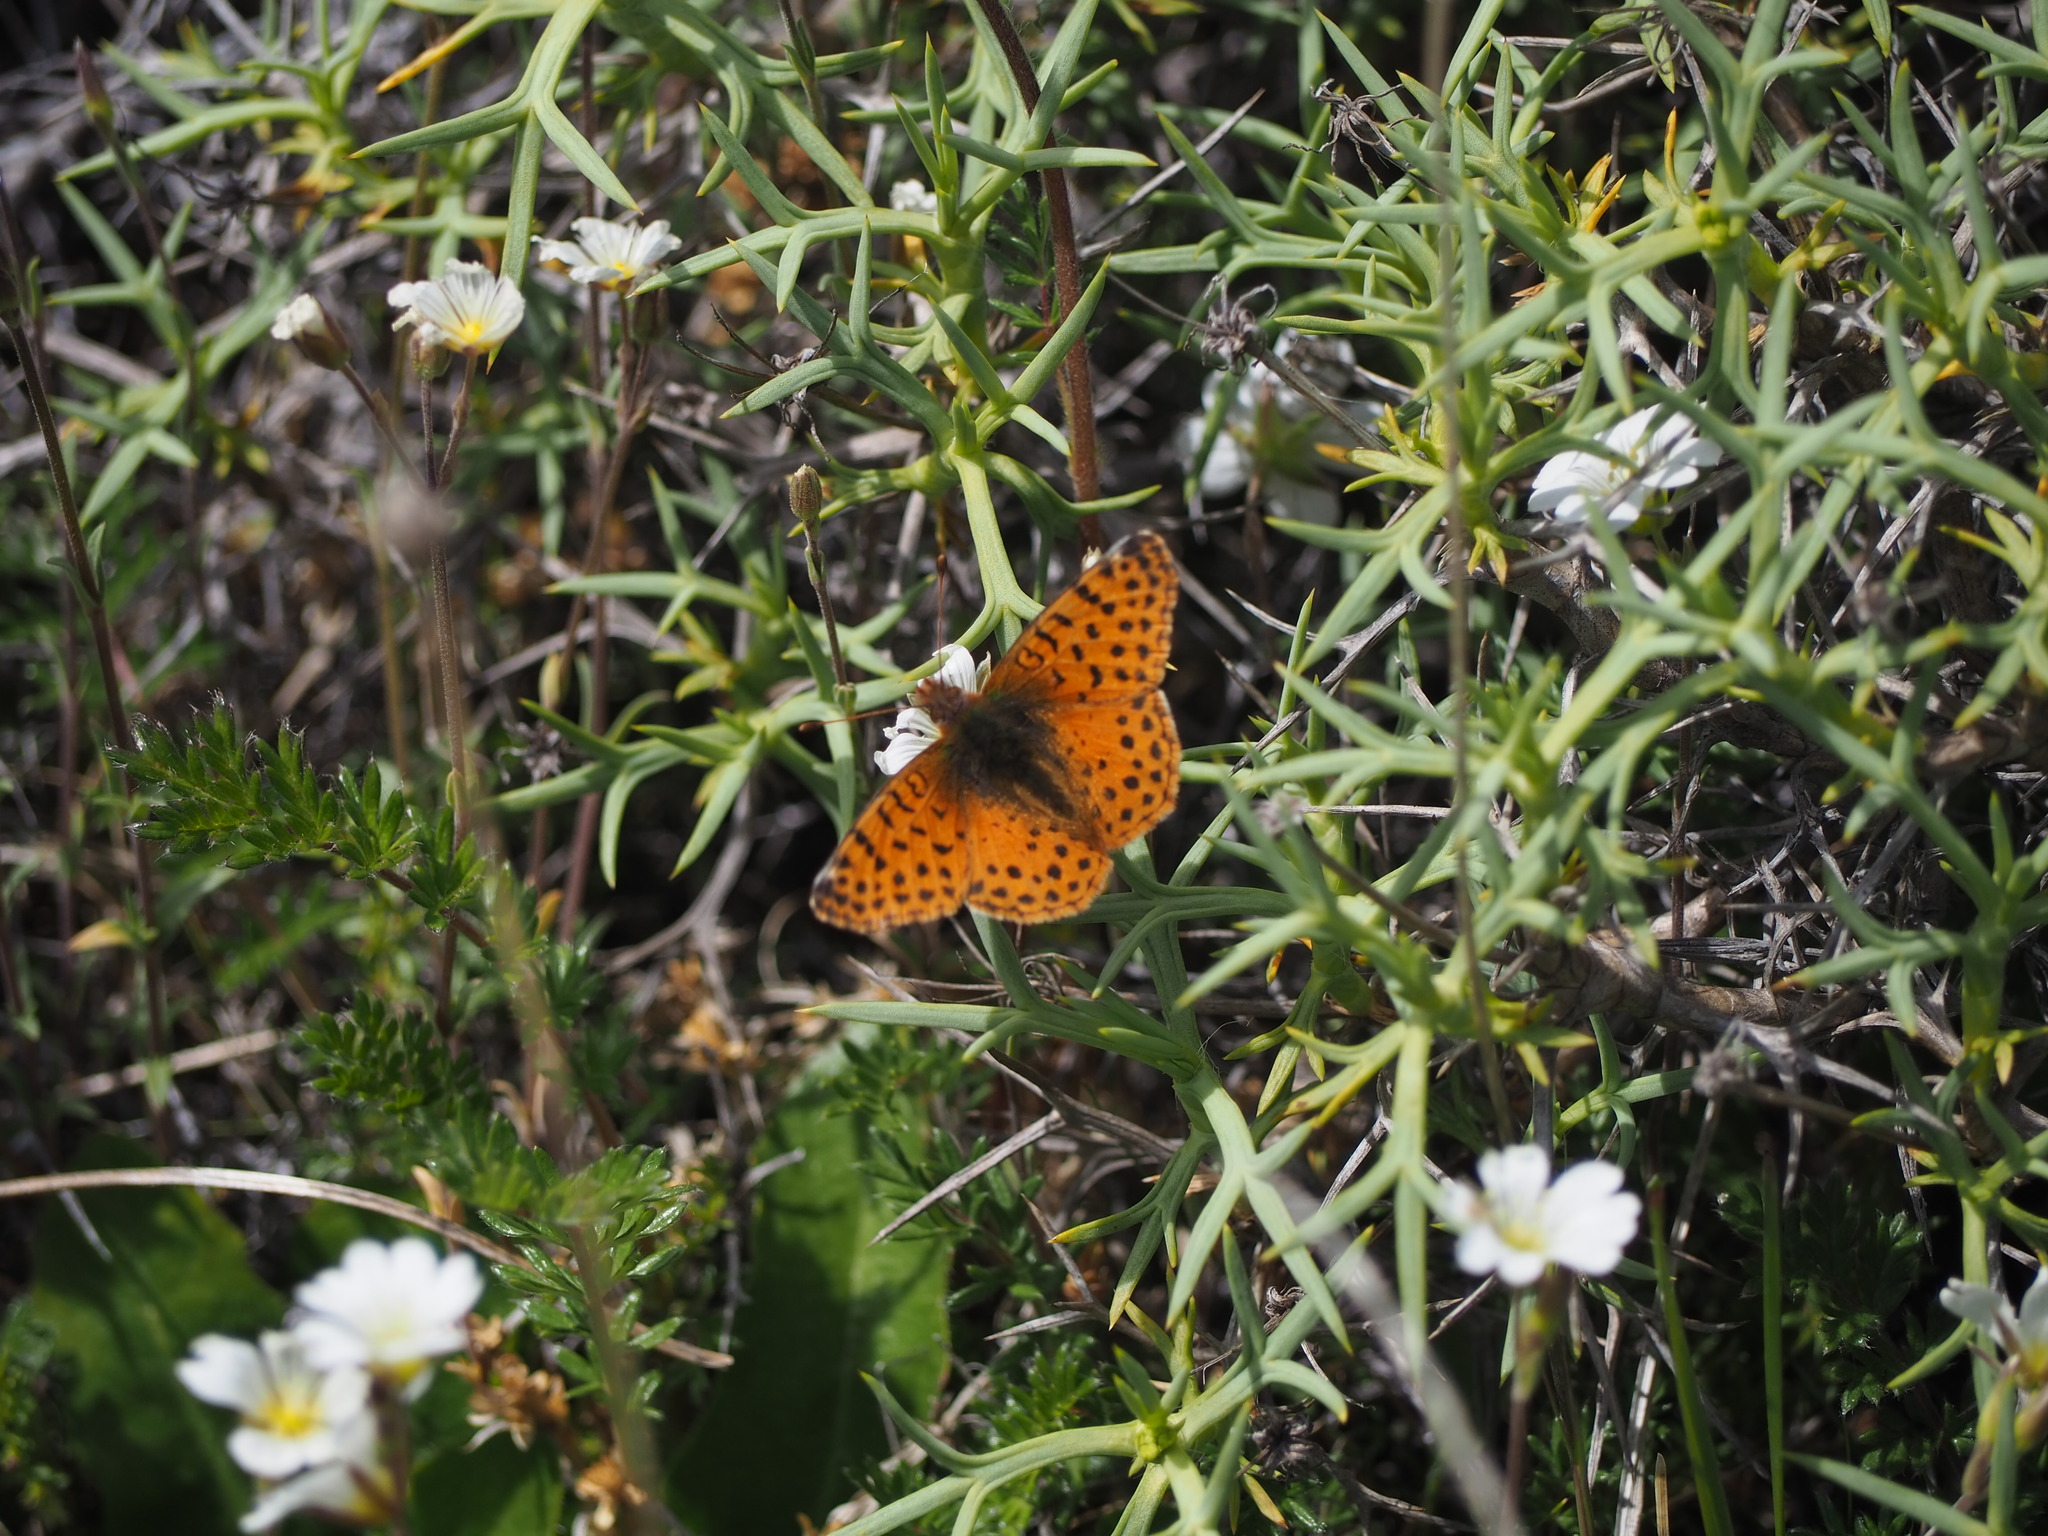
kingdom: Animalia
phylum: Arthropoda
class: Insecta
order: Lepidoptera
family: Nymphalidae
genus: Issoria
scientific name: Issoria Yramea cytheris
